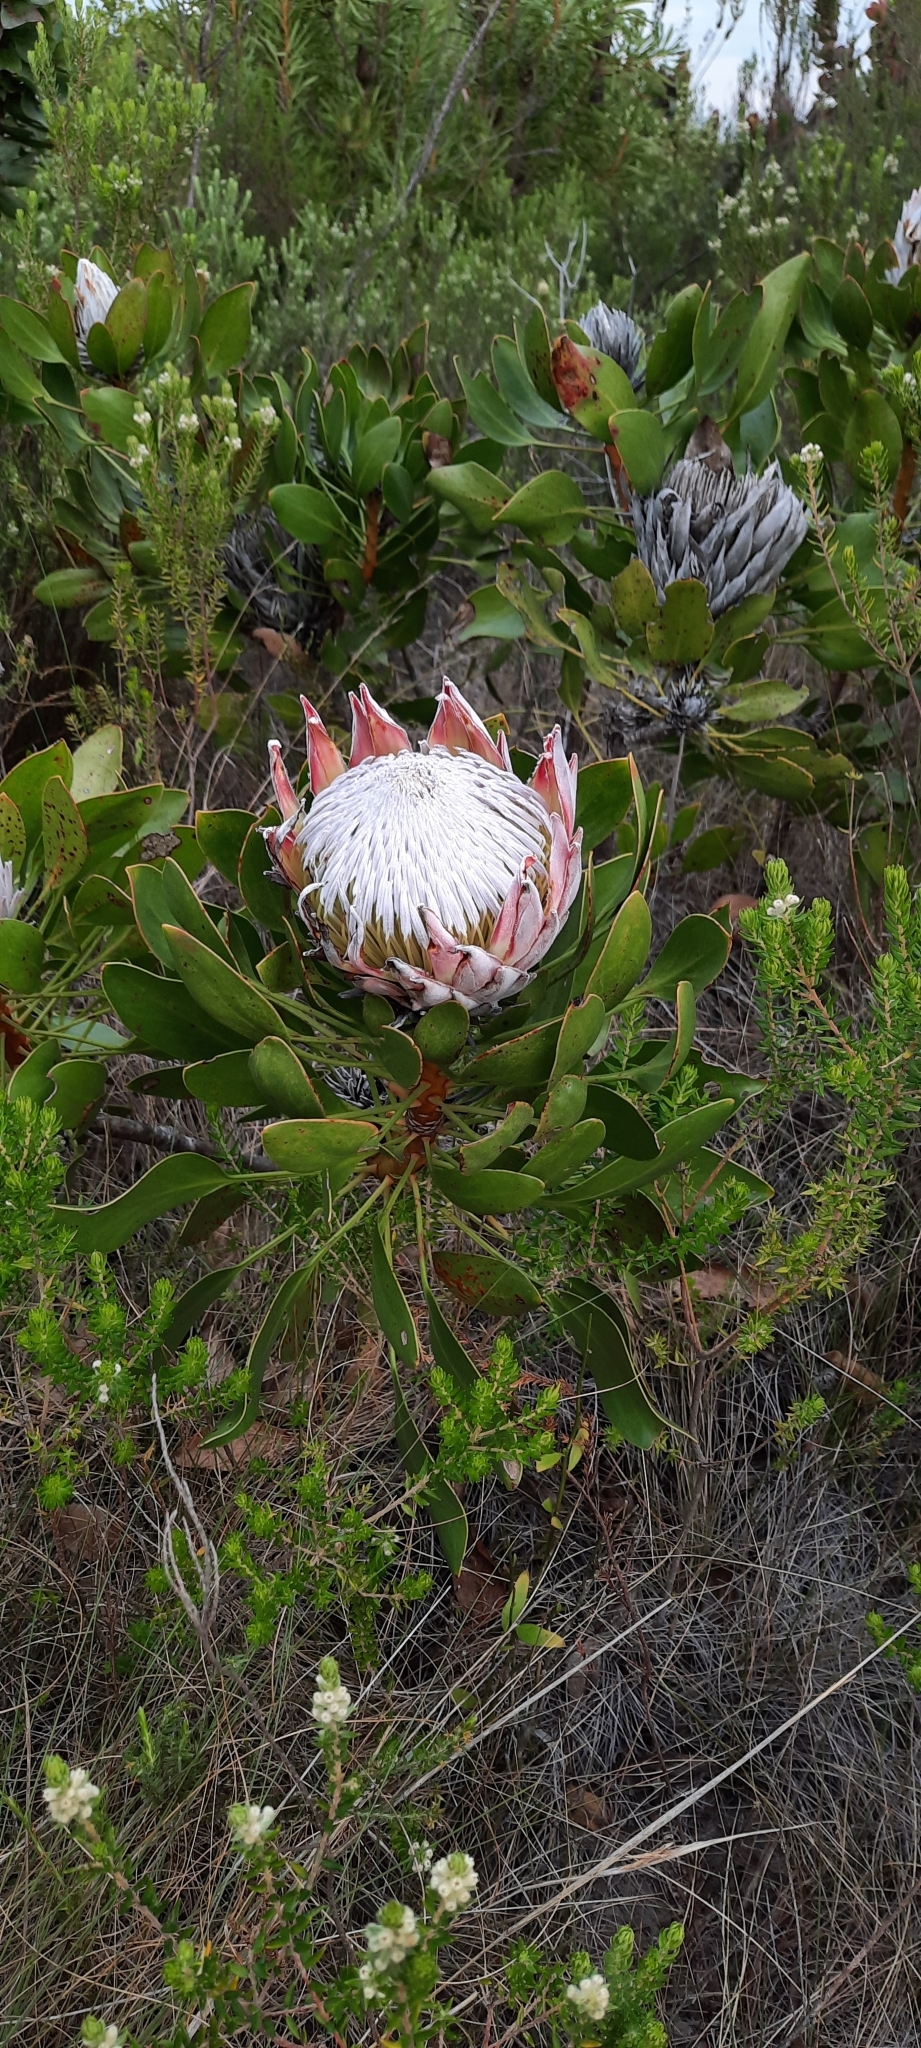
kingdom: Plantae
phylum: Tracheophyta
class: Magnoliopsida
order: Proteales
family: Proteaceae
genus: Protea
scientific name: Protea cynaroides
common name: King protea
